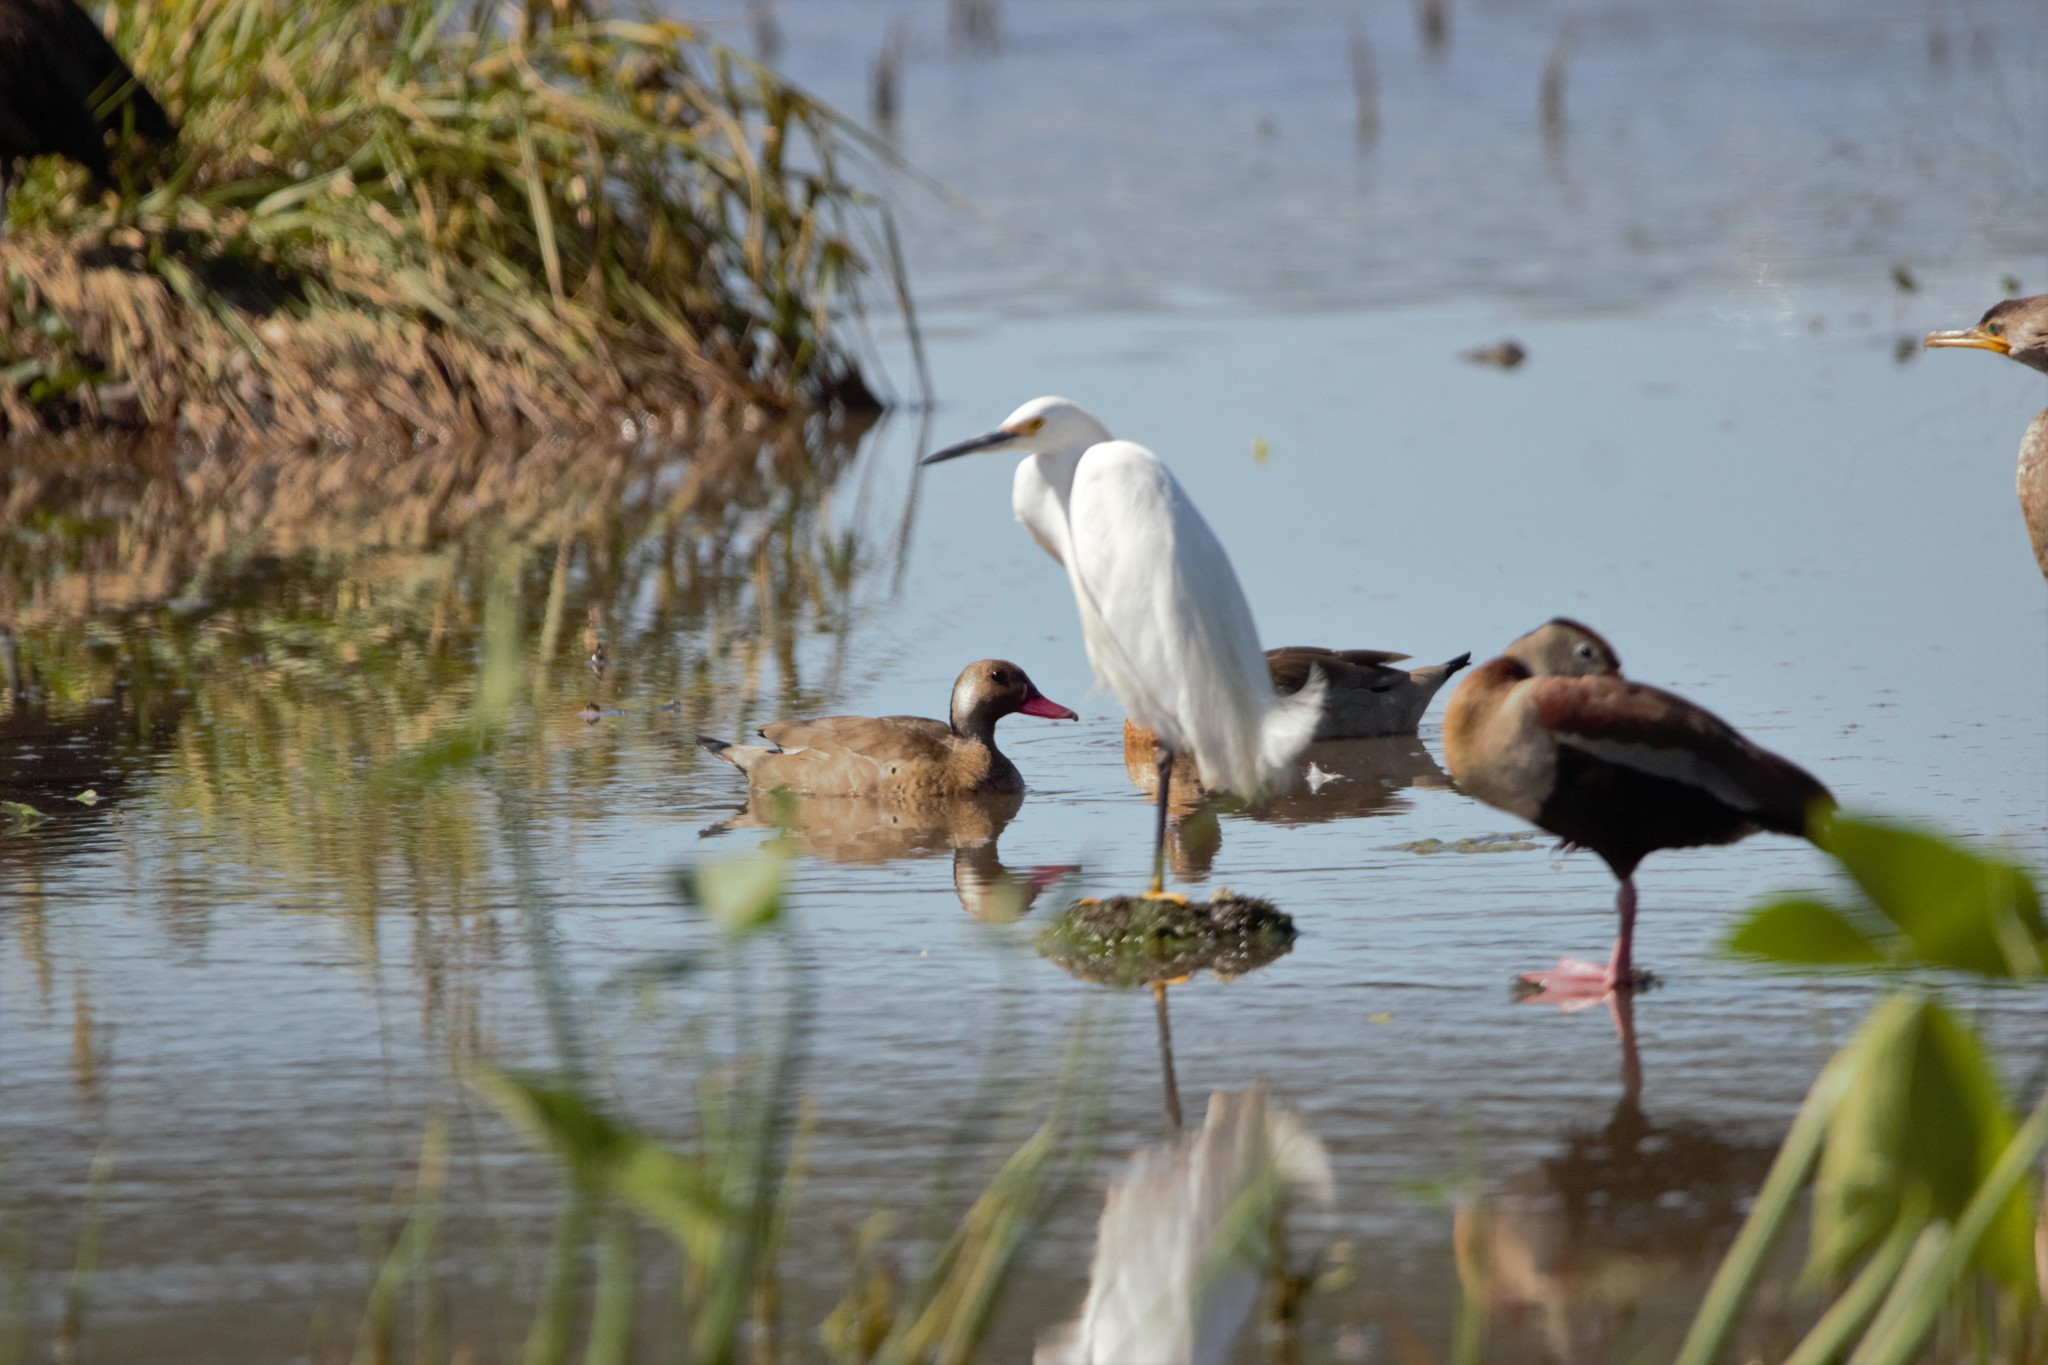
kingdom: Animalia
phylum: Chordata
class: Aves
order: Pelecaniformes
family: Ardeidae
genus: Egretta
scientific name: Egretta thula
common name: Snowy egret
